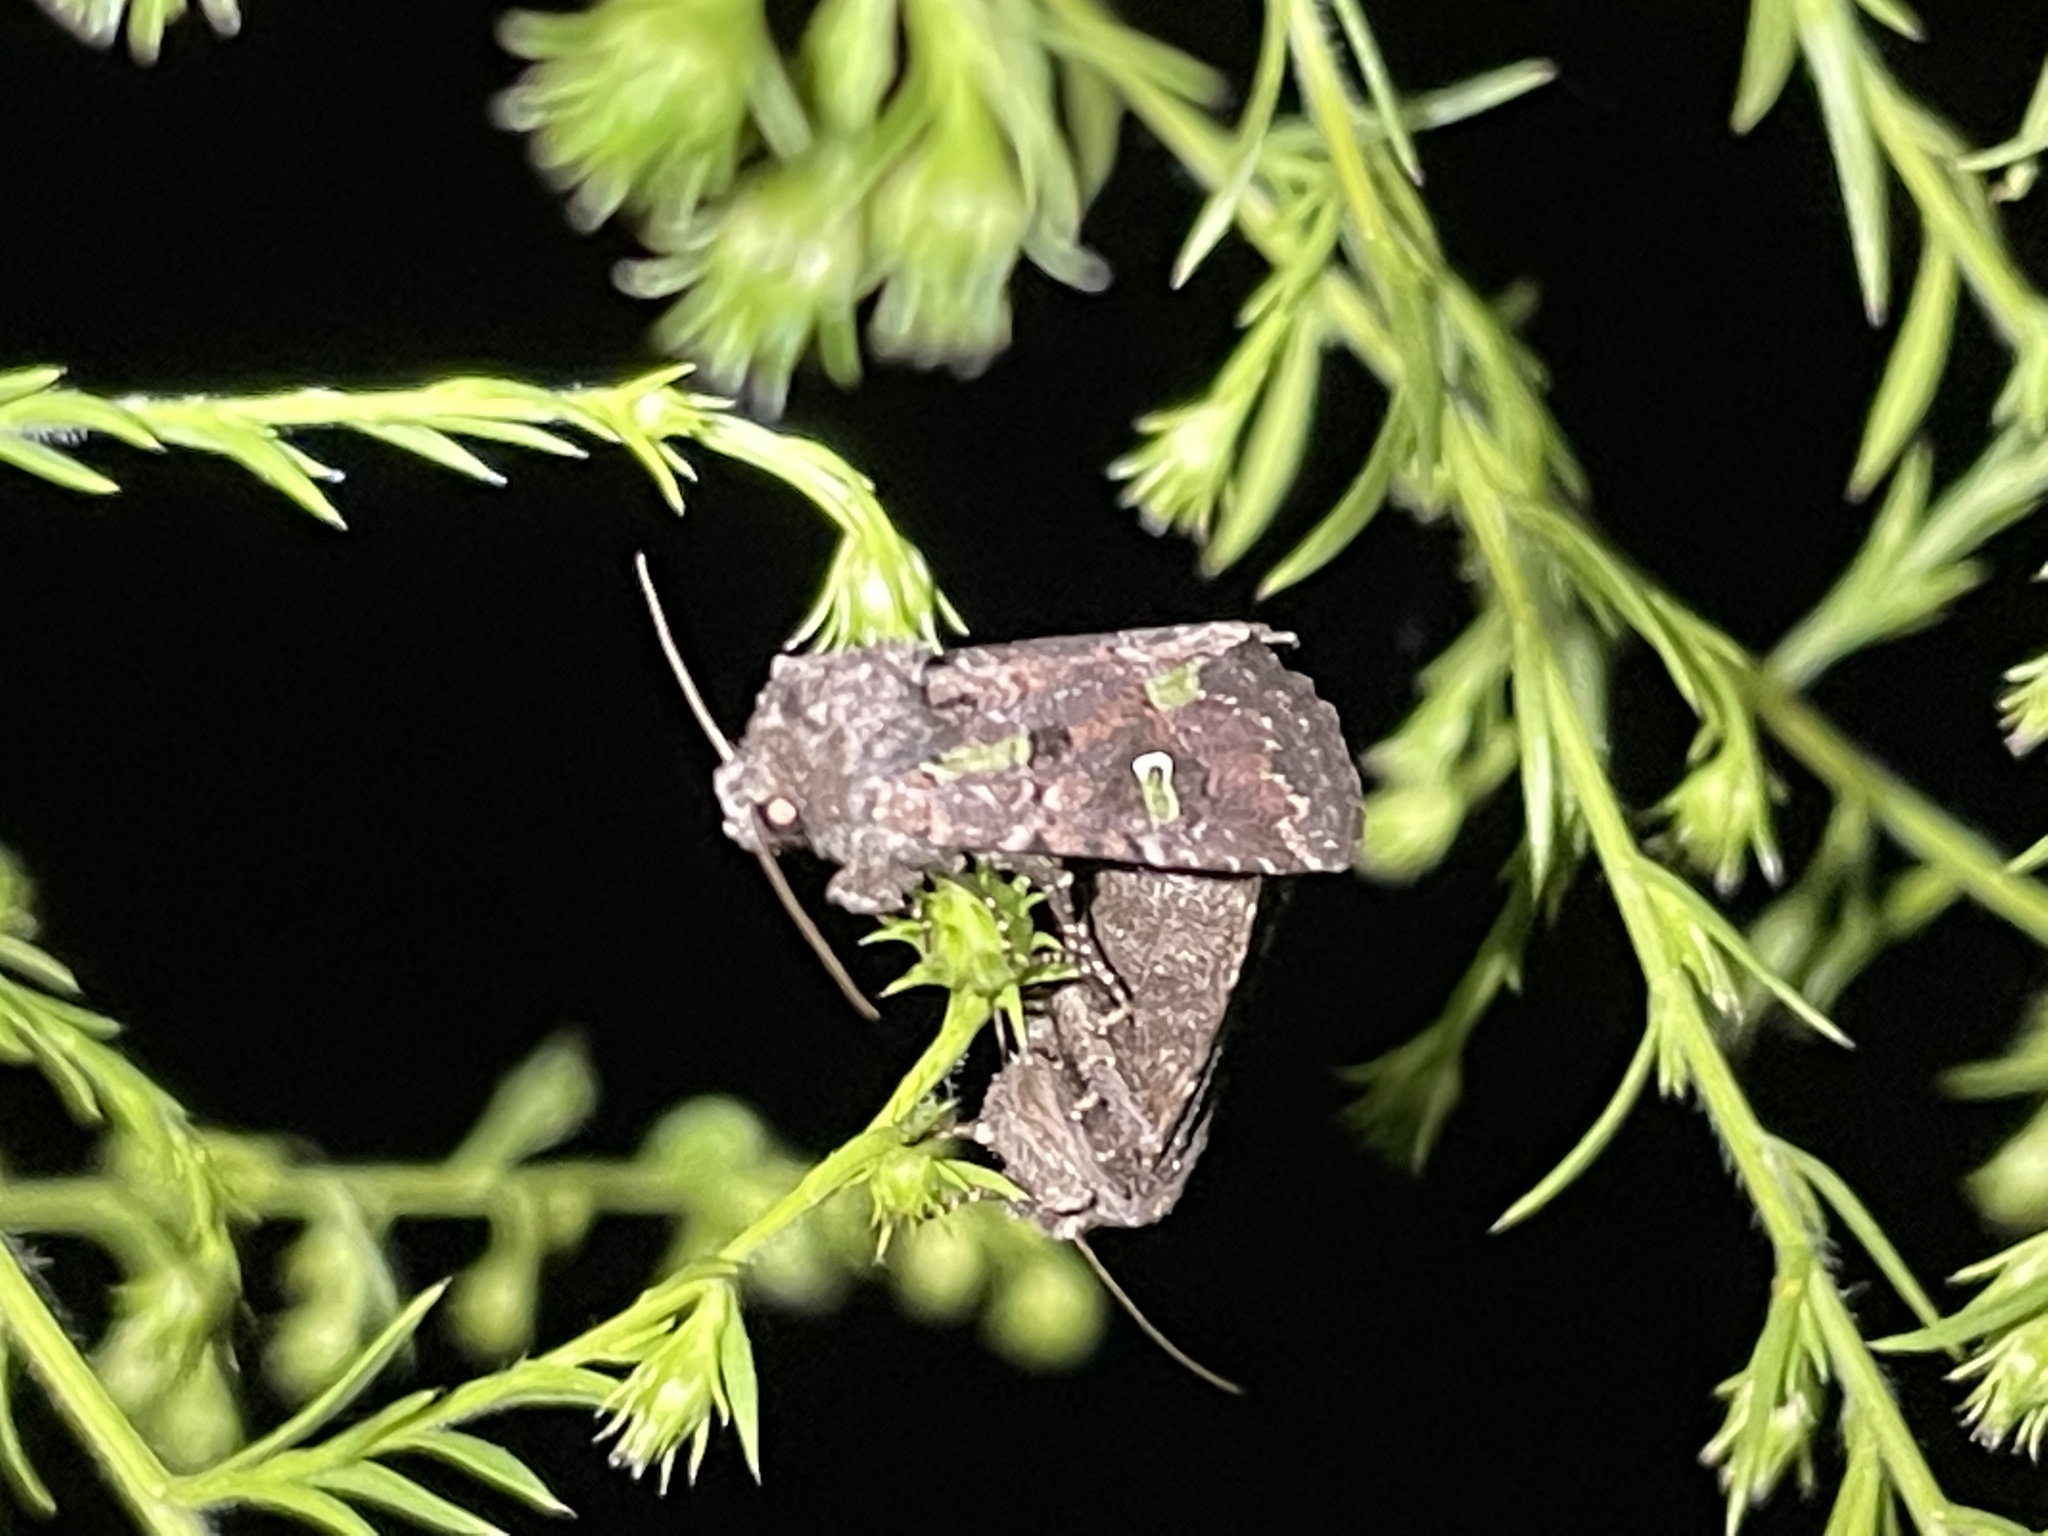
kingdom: Animalia
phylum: Arthropoda
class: Insecta
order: Lepidoptera
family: Noctuidae
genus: Lacinipolia
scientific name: Lacinipolia renigera
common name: Kidney-spotted minor
